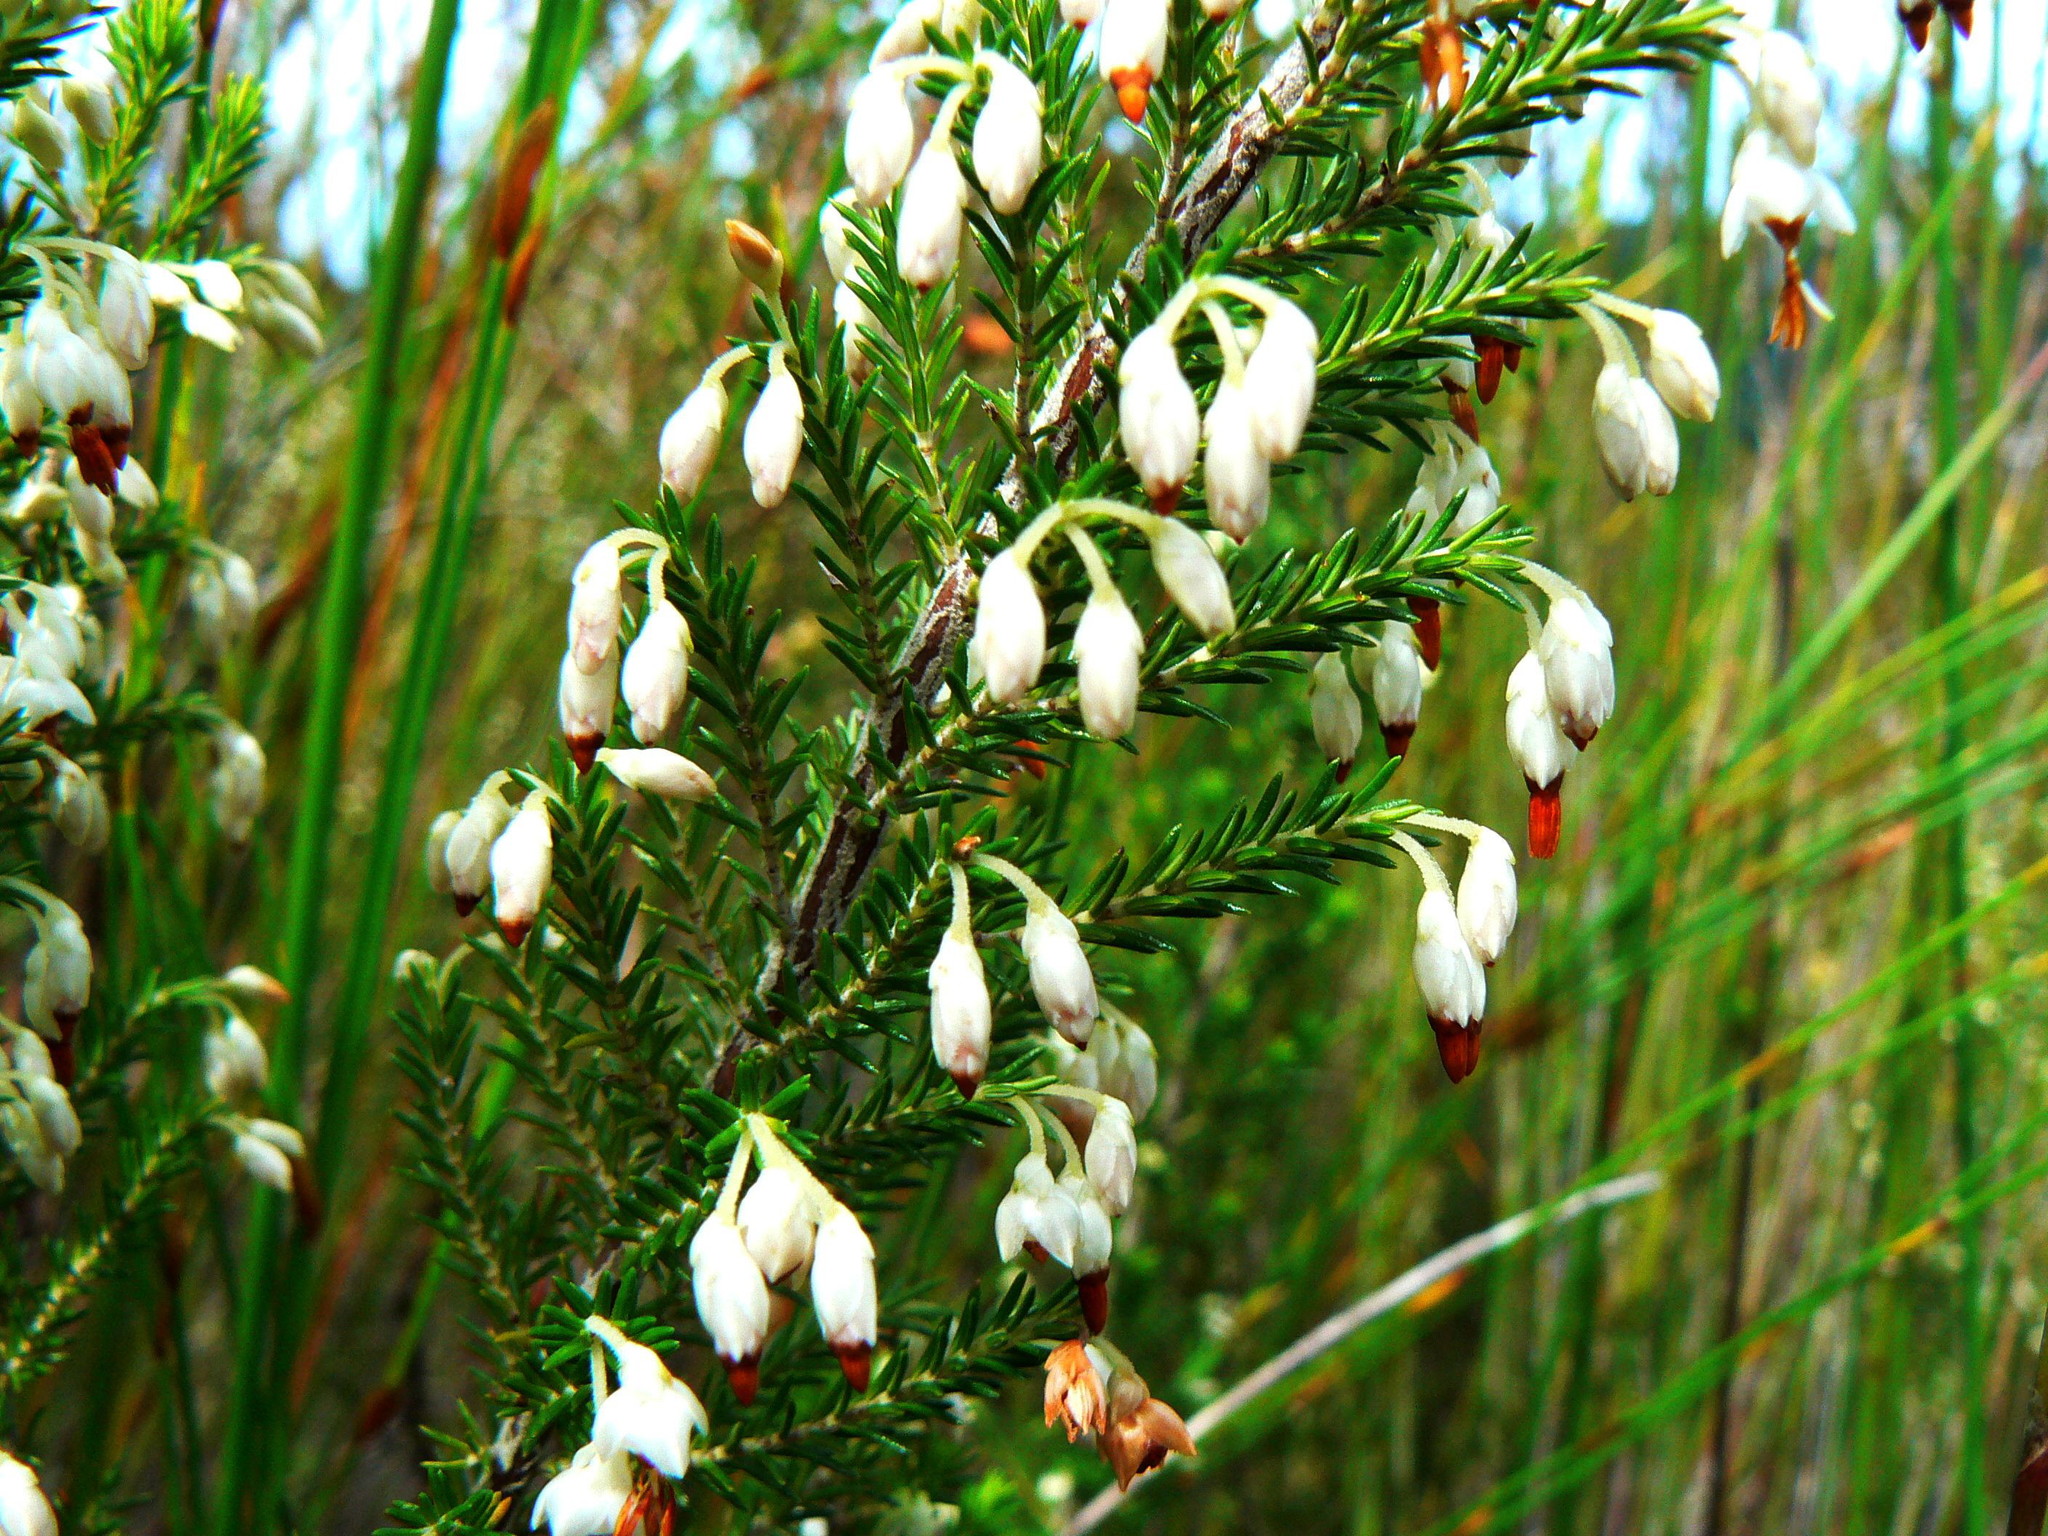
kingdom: Plantae
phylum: Tracheophyta
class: Magnoliopsida
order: Ericales
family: Ericaceae
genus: Erica
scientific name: Erica penicilliformis
